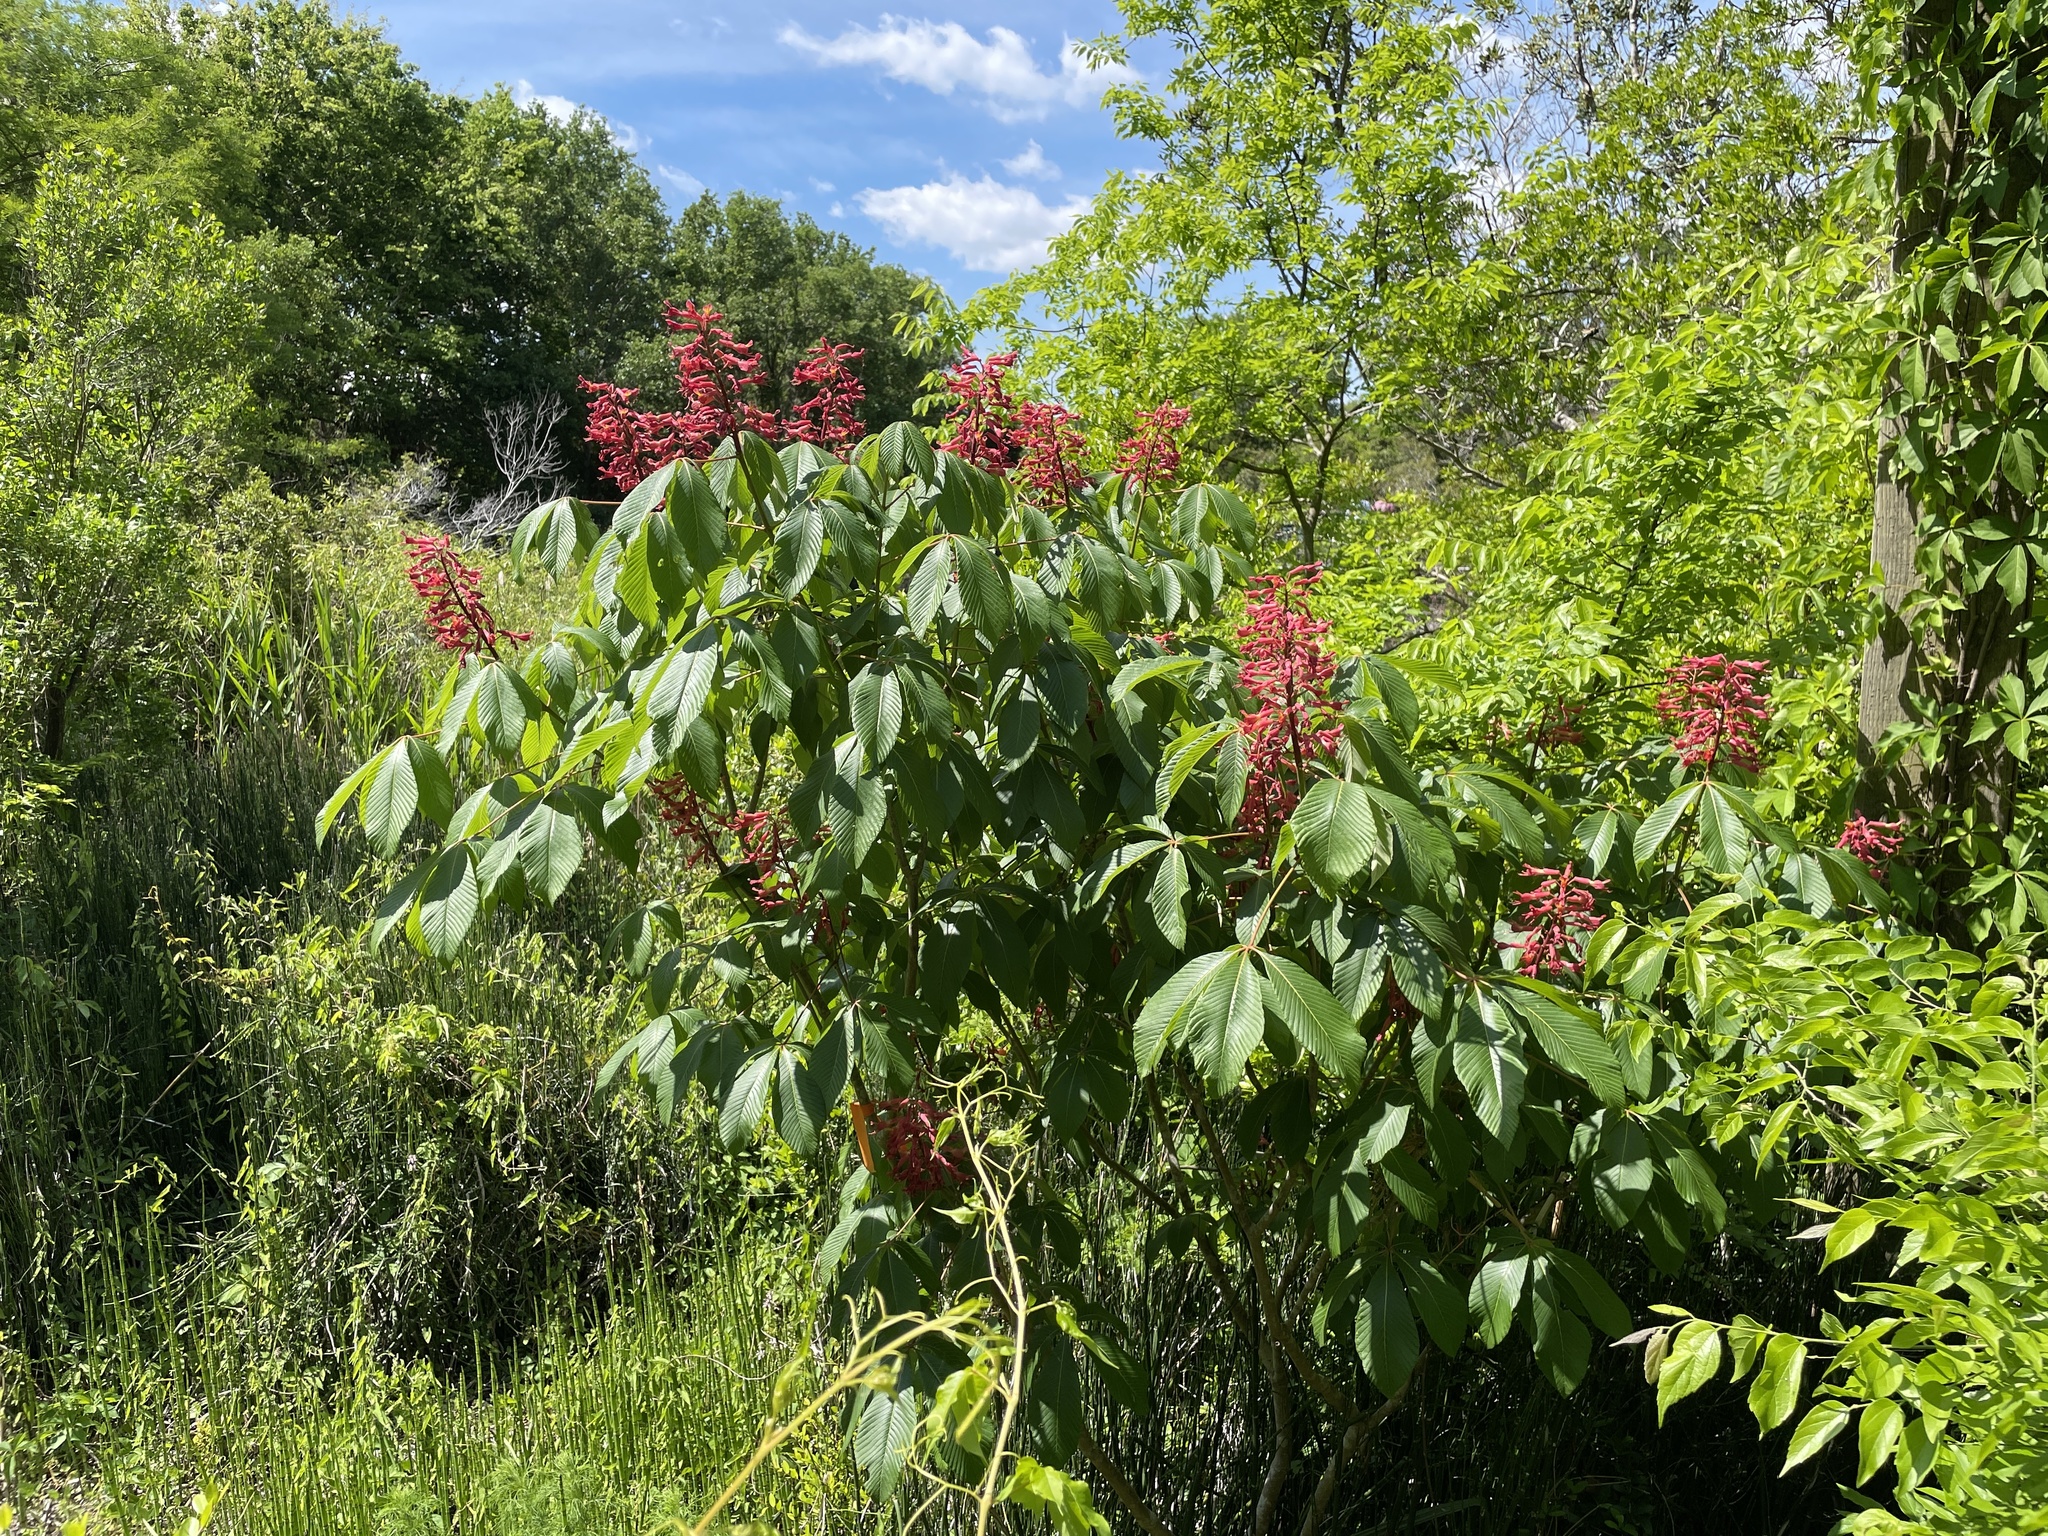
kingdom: Plantae
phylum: Tracheophyta
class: Magnoliopsida
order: Sapindales
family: Sapindaceae
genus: Aesculus
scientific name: Aesculus pavia
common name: Red buckeye
